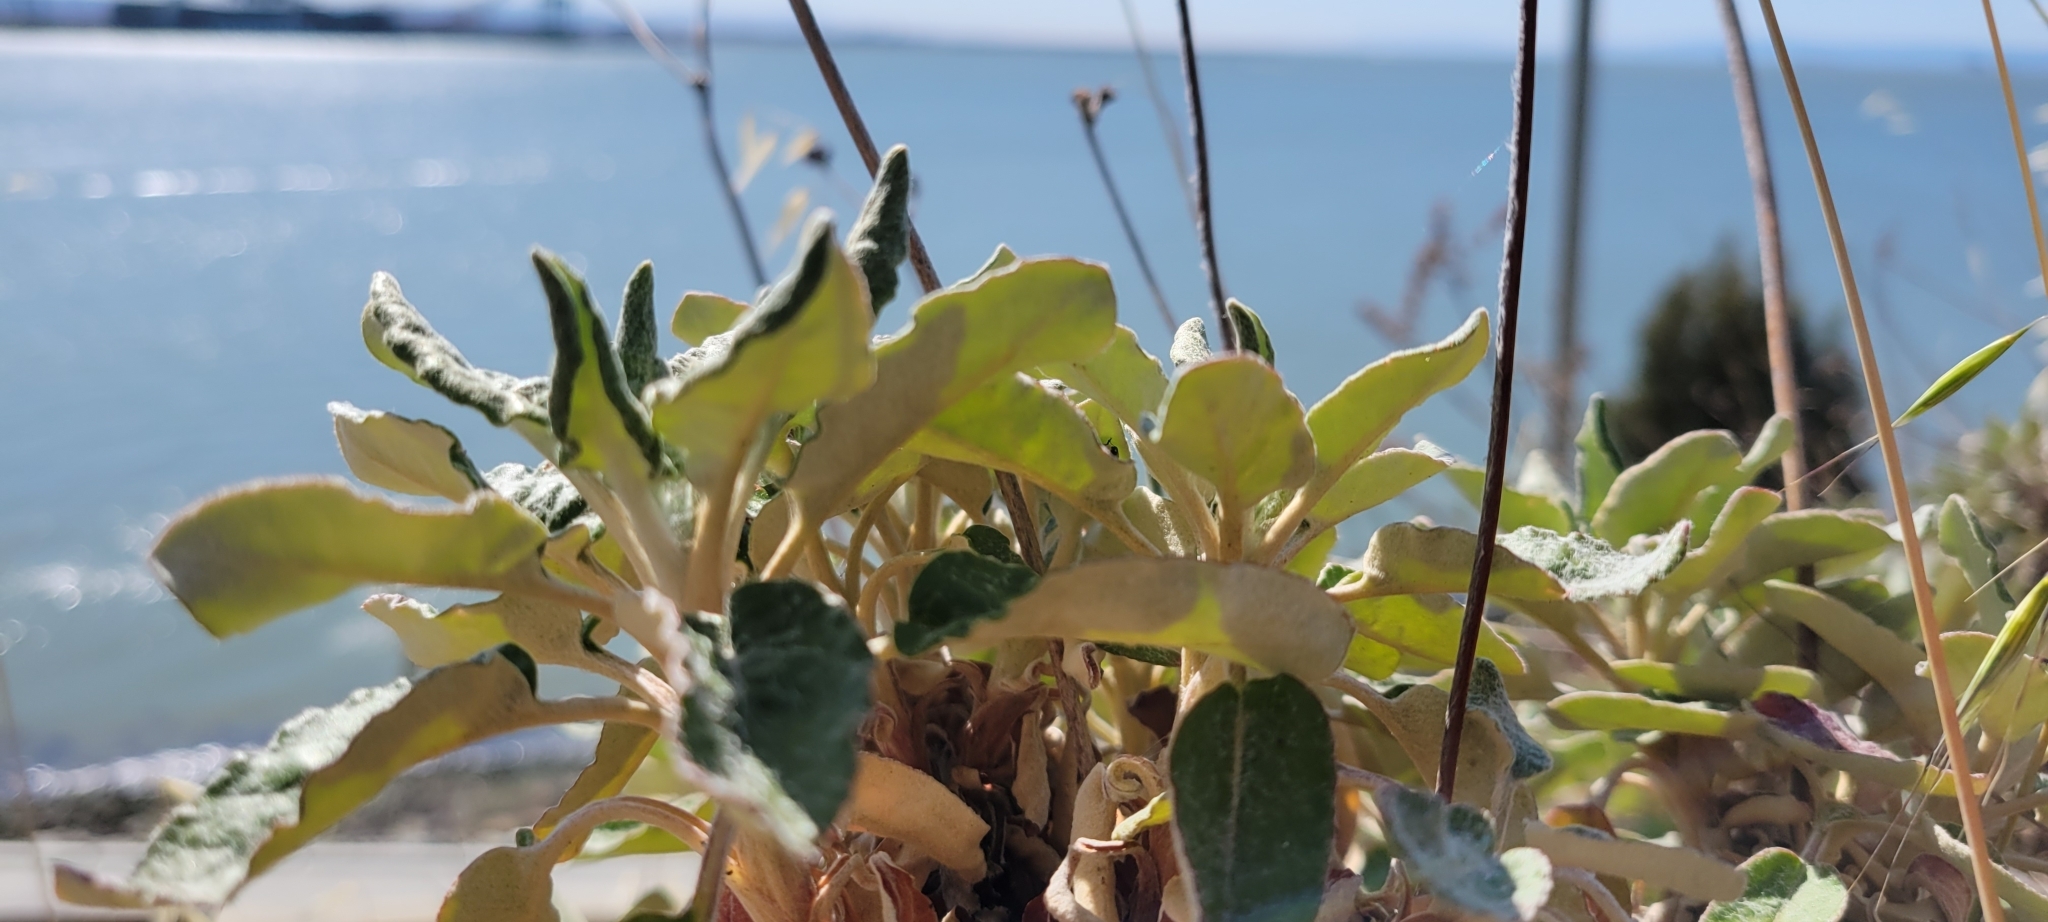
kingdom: Plantae
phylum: Tracheophyta
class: Magnoliopsida
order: Caryophyllales
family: Polygonaceae
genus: Eriogonum
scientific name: Eriogonum latifolium
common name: Seaside wild buckwheat
